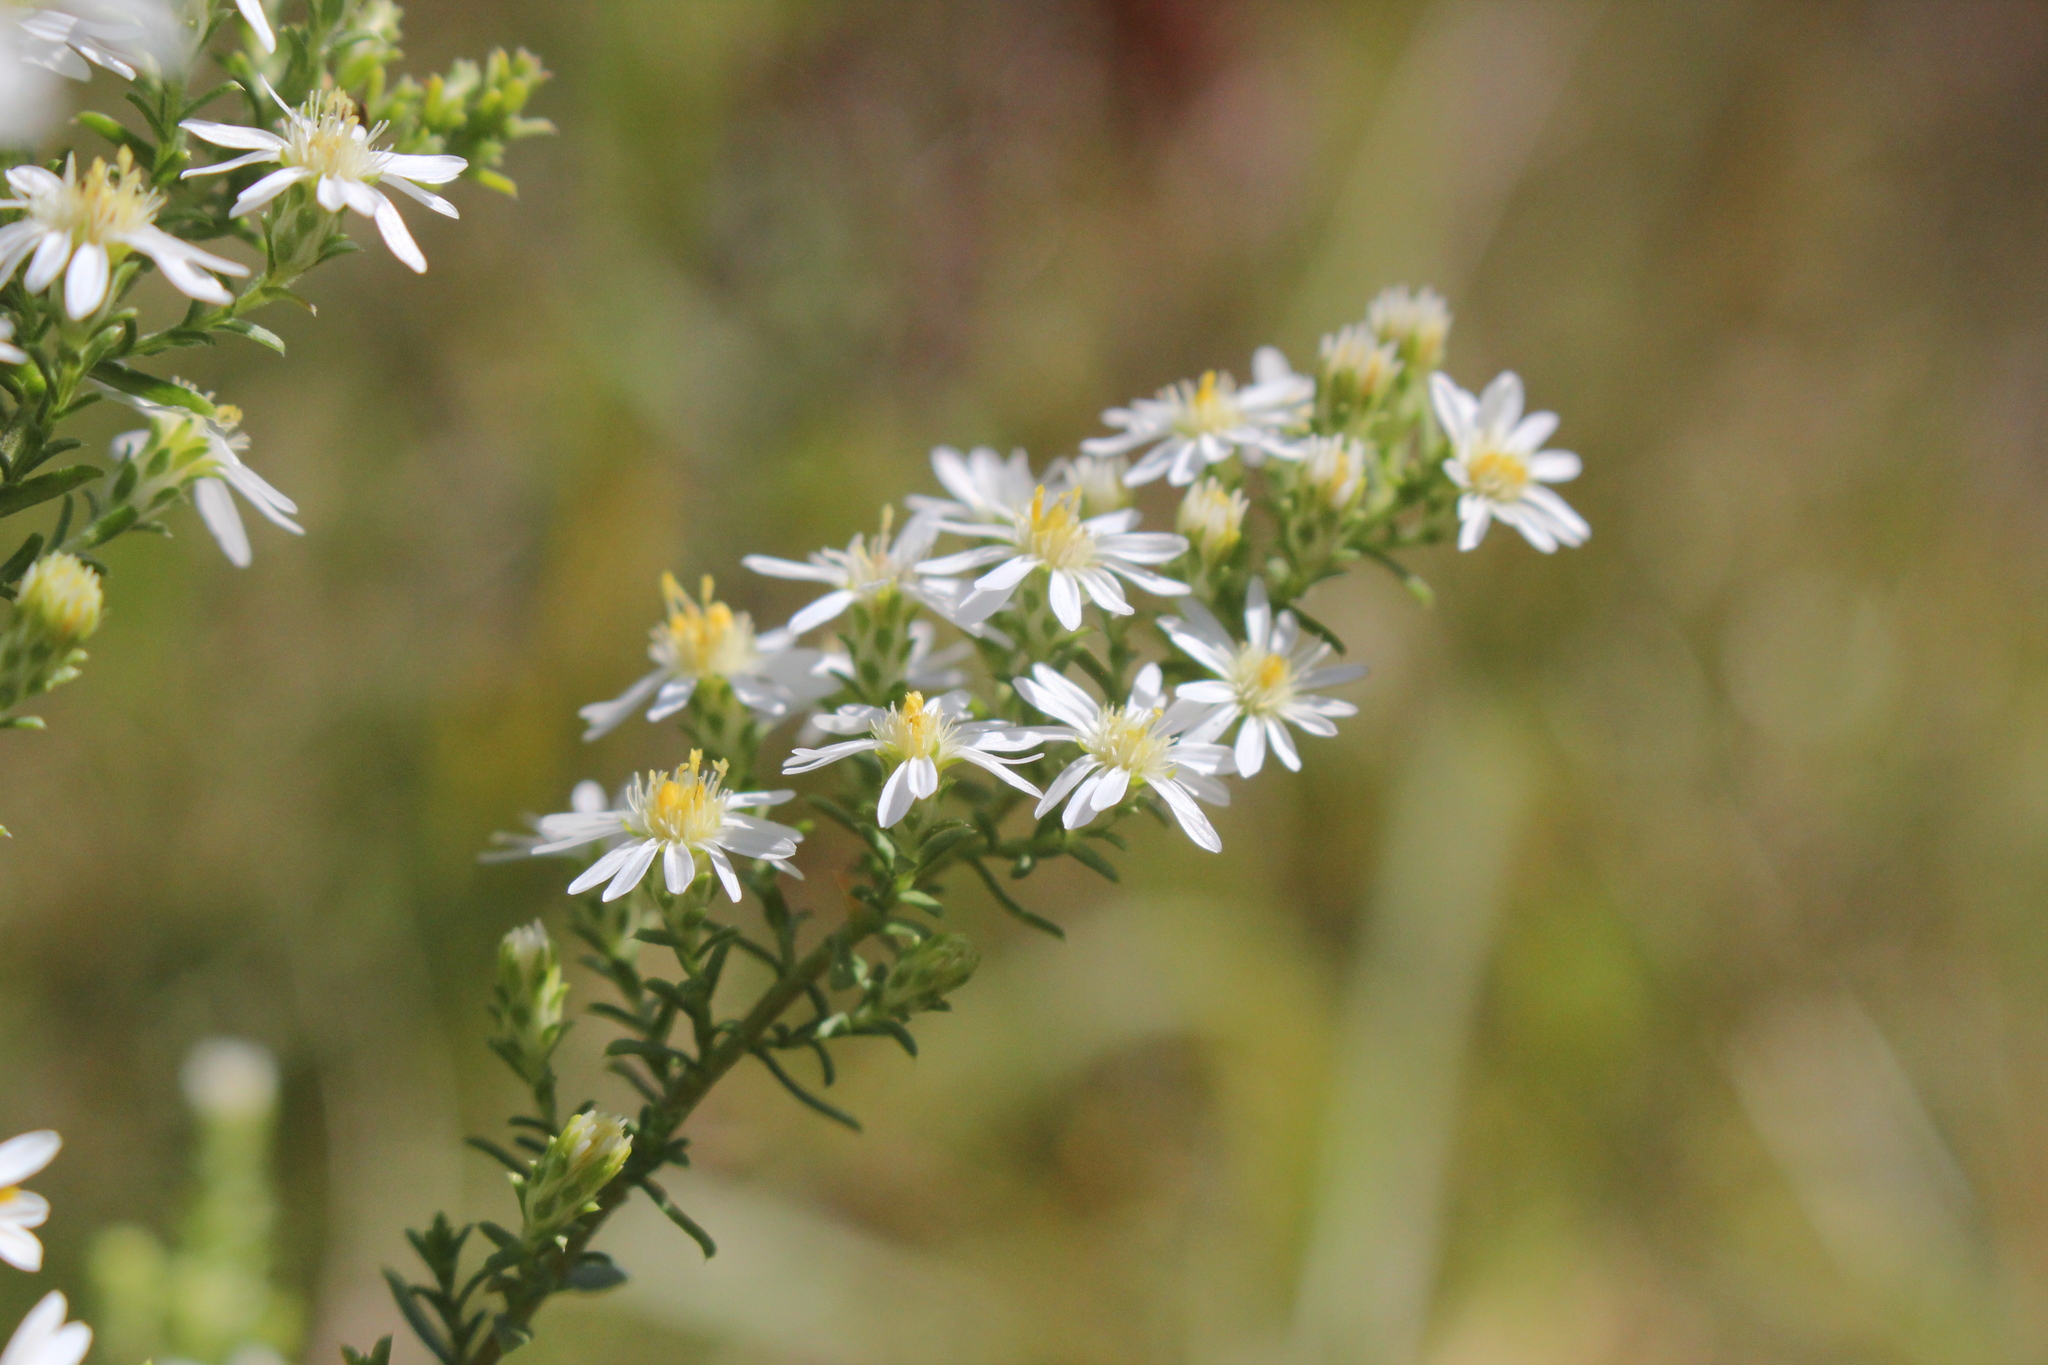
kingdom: Plantae
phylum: Tracheophyta
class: Magnoliopsida
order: Asterales
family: Asteraceae
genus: Symphyotrichum
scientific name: Symphyotrichum ericoides
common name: Heath aster
